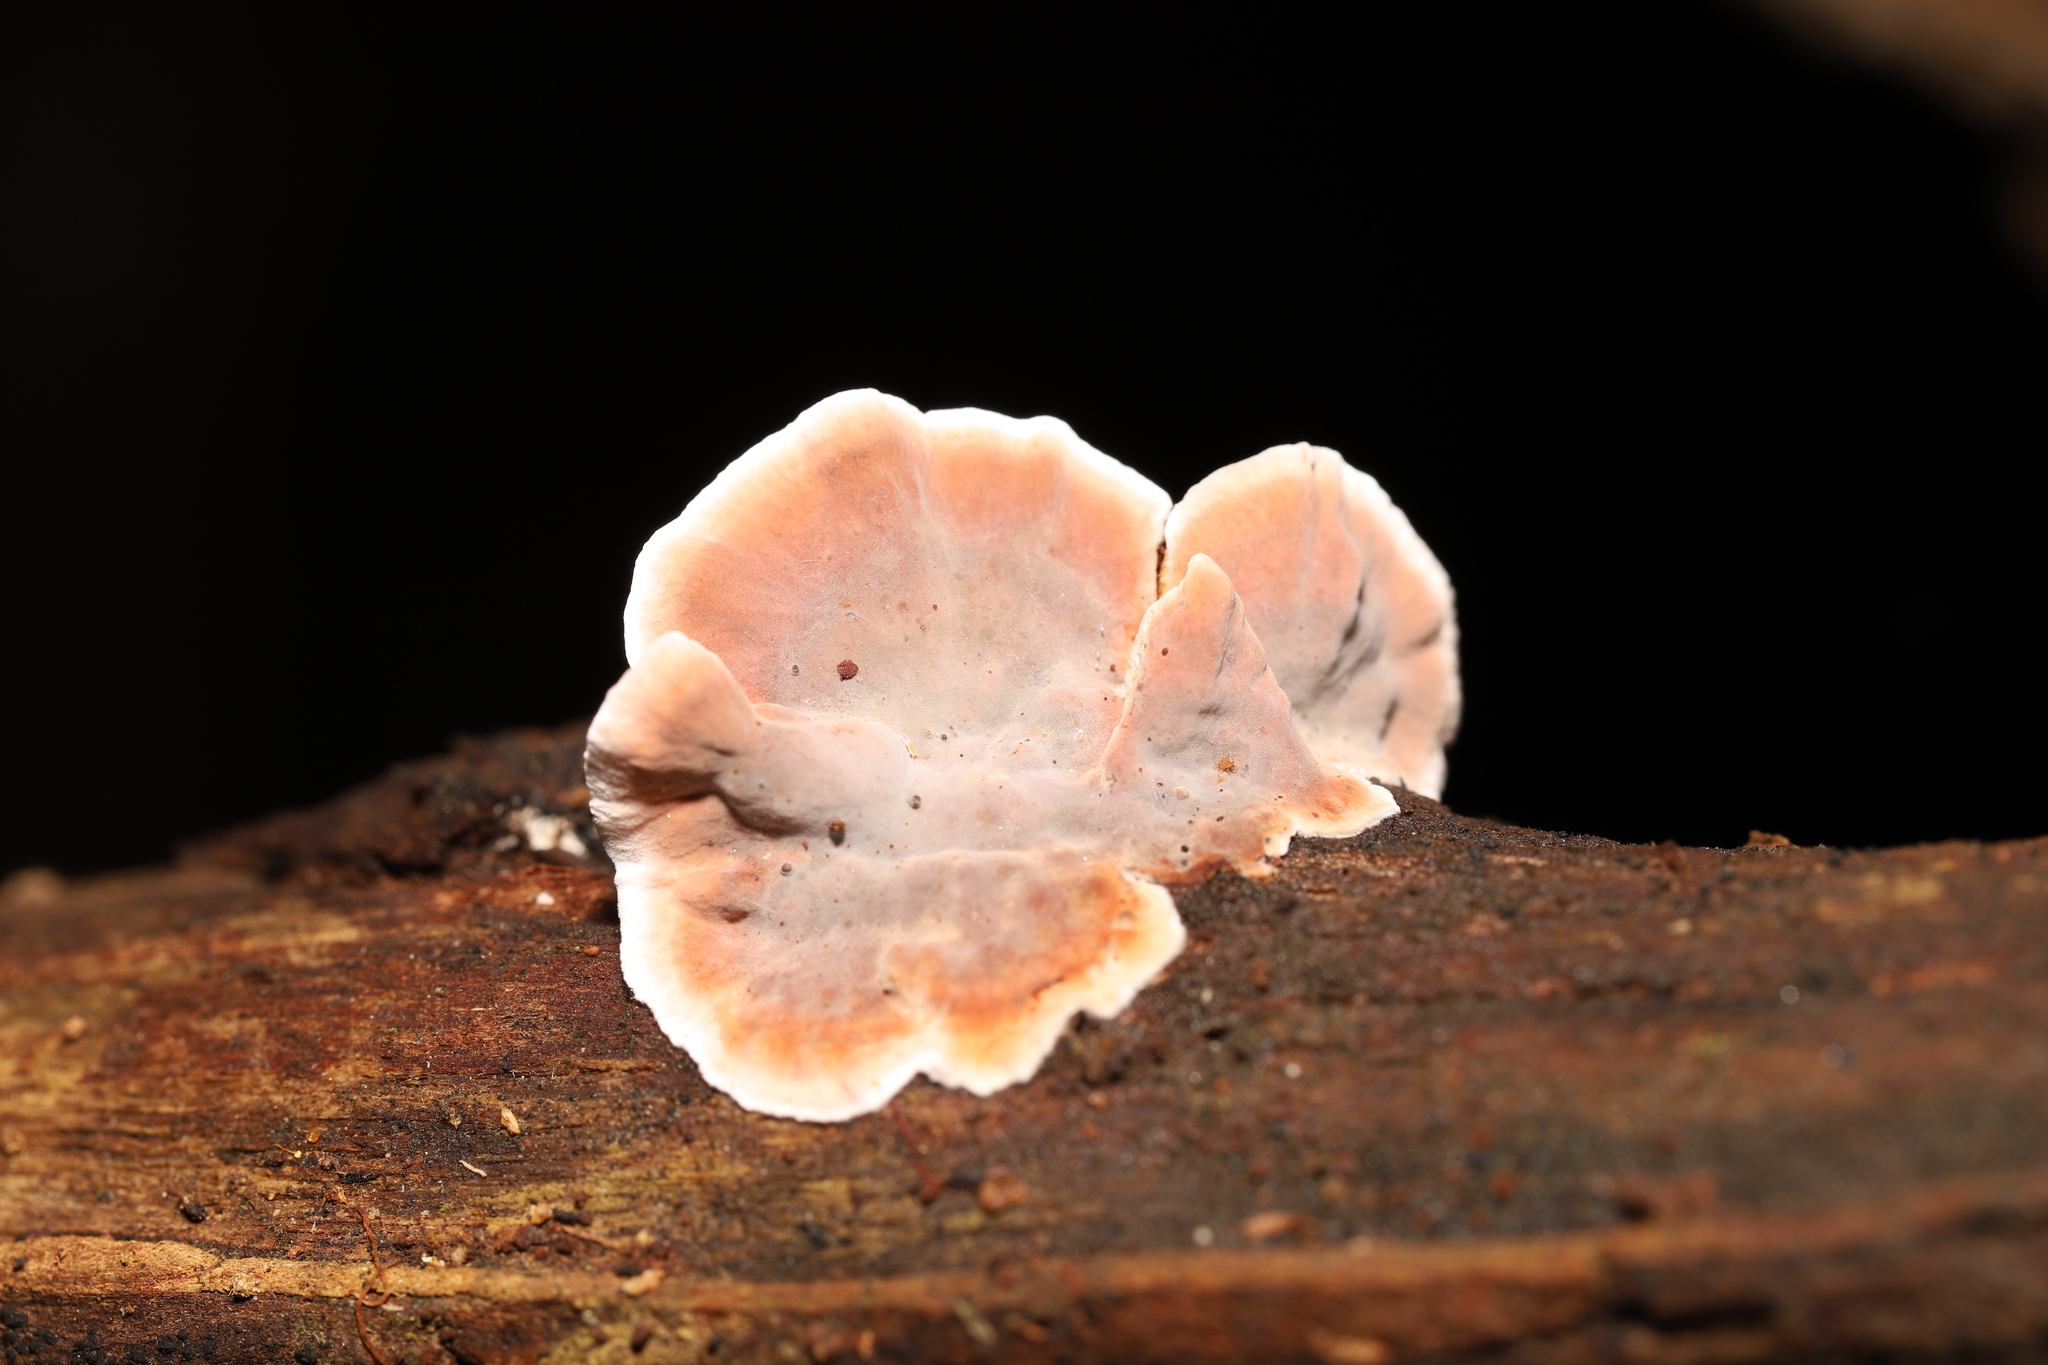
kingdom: Fungi
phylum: Basidiomycota
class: Agaricomycetes
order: Russulales
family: Stereaceae
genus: Xylobolus
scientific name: Xylobolus illudens
